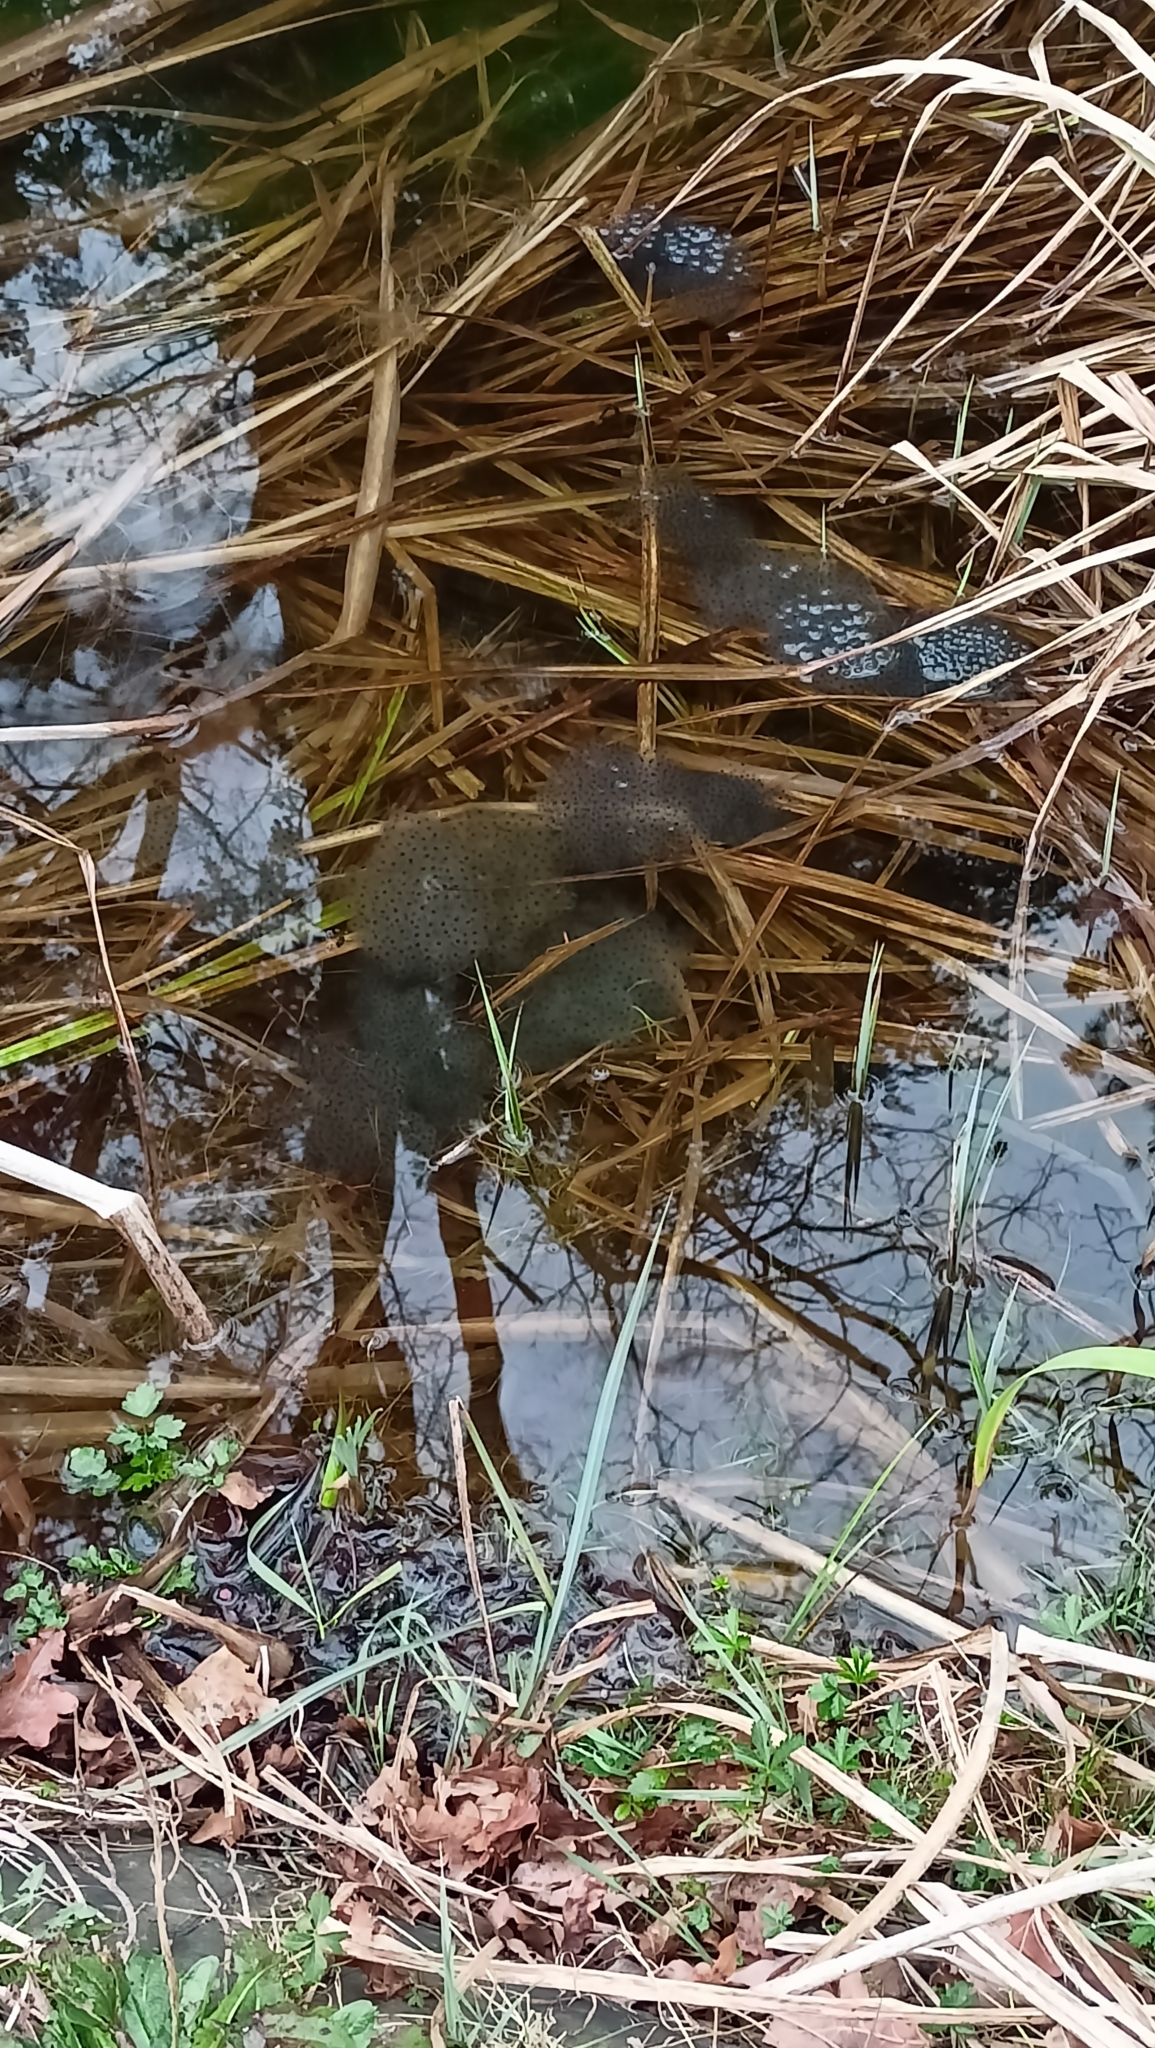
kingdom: Animalia
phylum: Chordata
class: Amphibia
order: Anura
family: Ranidae
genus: Rana
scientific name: Rana temporaria
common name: Common frog
